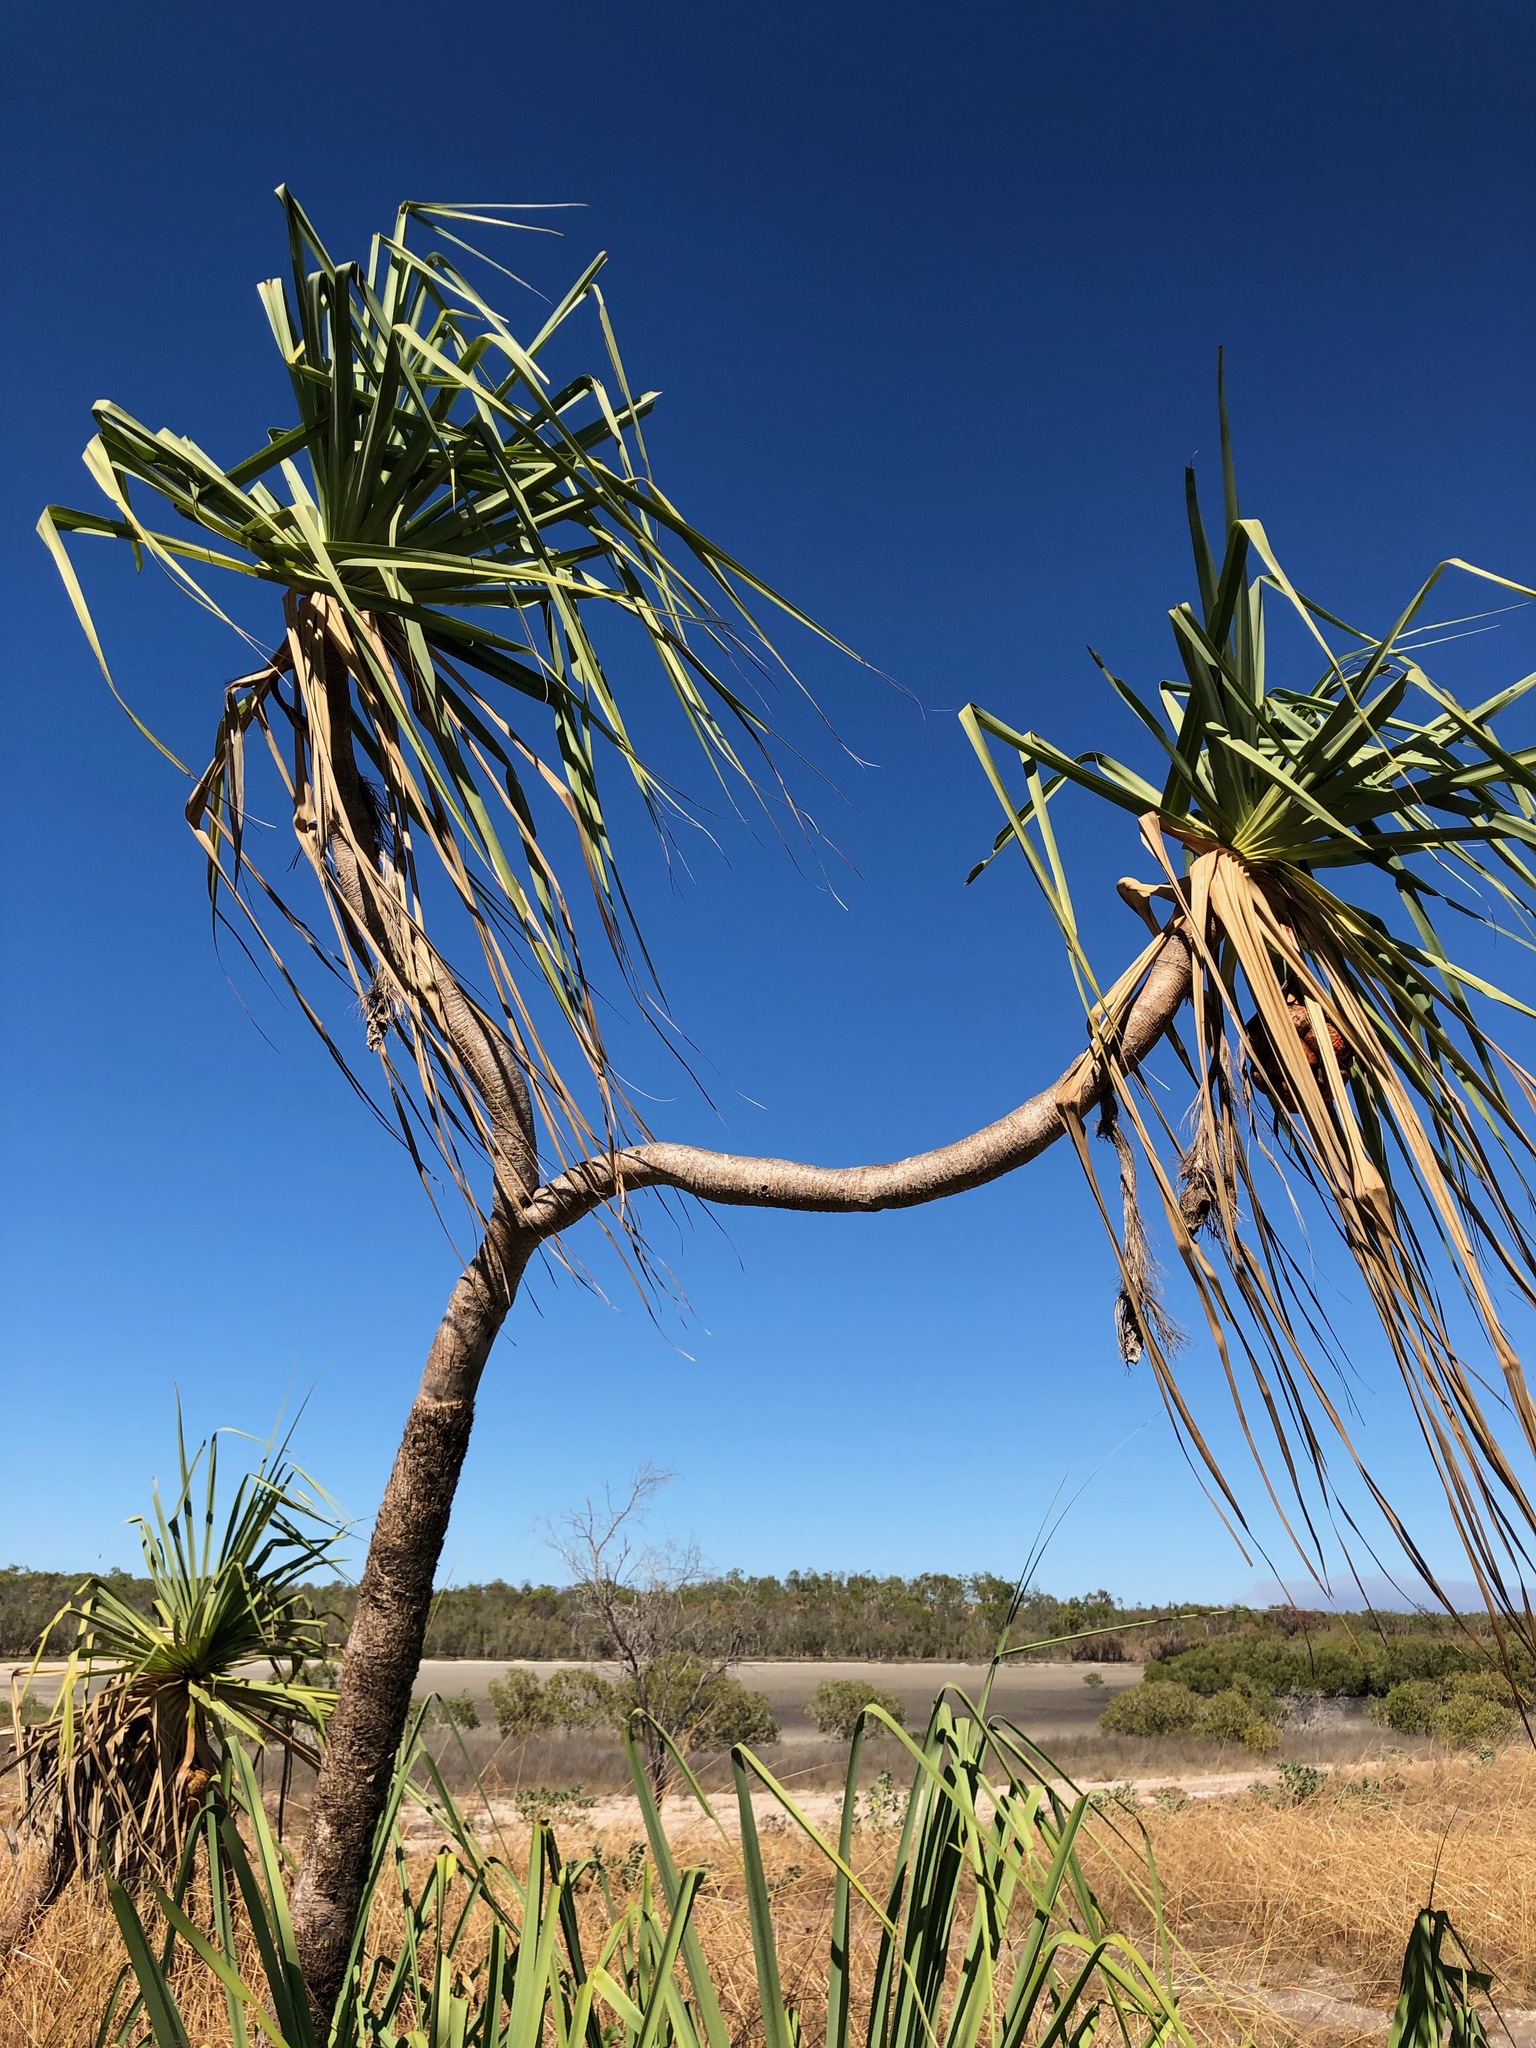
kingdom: Plantae
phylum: Tracheophyta
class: Liliopsida
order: Pandanales
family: Pandanaceae
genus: Pandanus
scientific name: Pandanus spiralis
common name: Screw-pine
